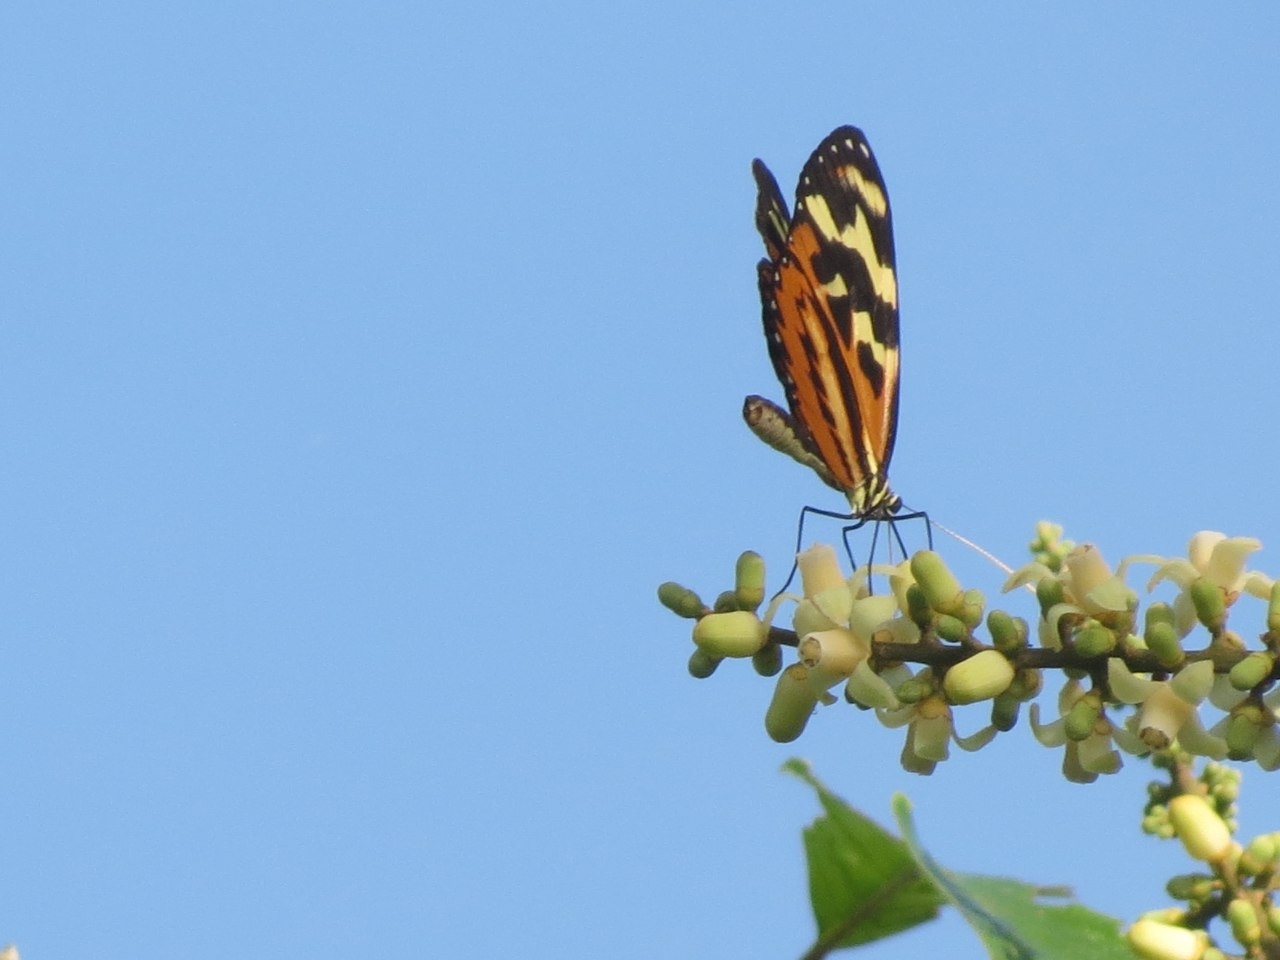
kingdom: Animalia
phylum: Arthropoda
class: Insecta
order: Lepidoptera
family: Nymphalidae
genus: Mechanitis
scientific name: Mechanitis polymnia
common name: Disturbed tigerwing
